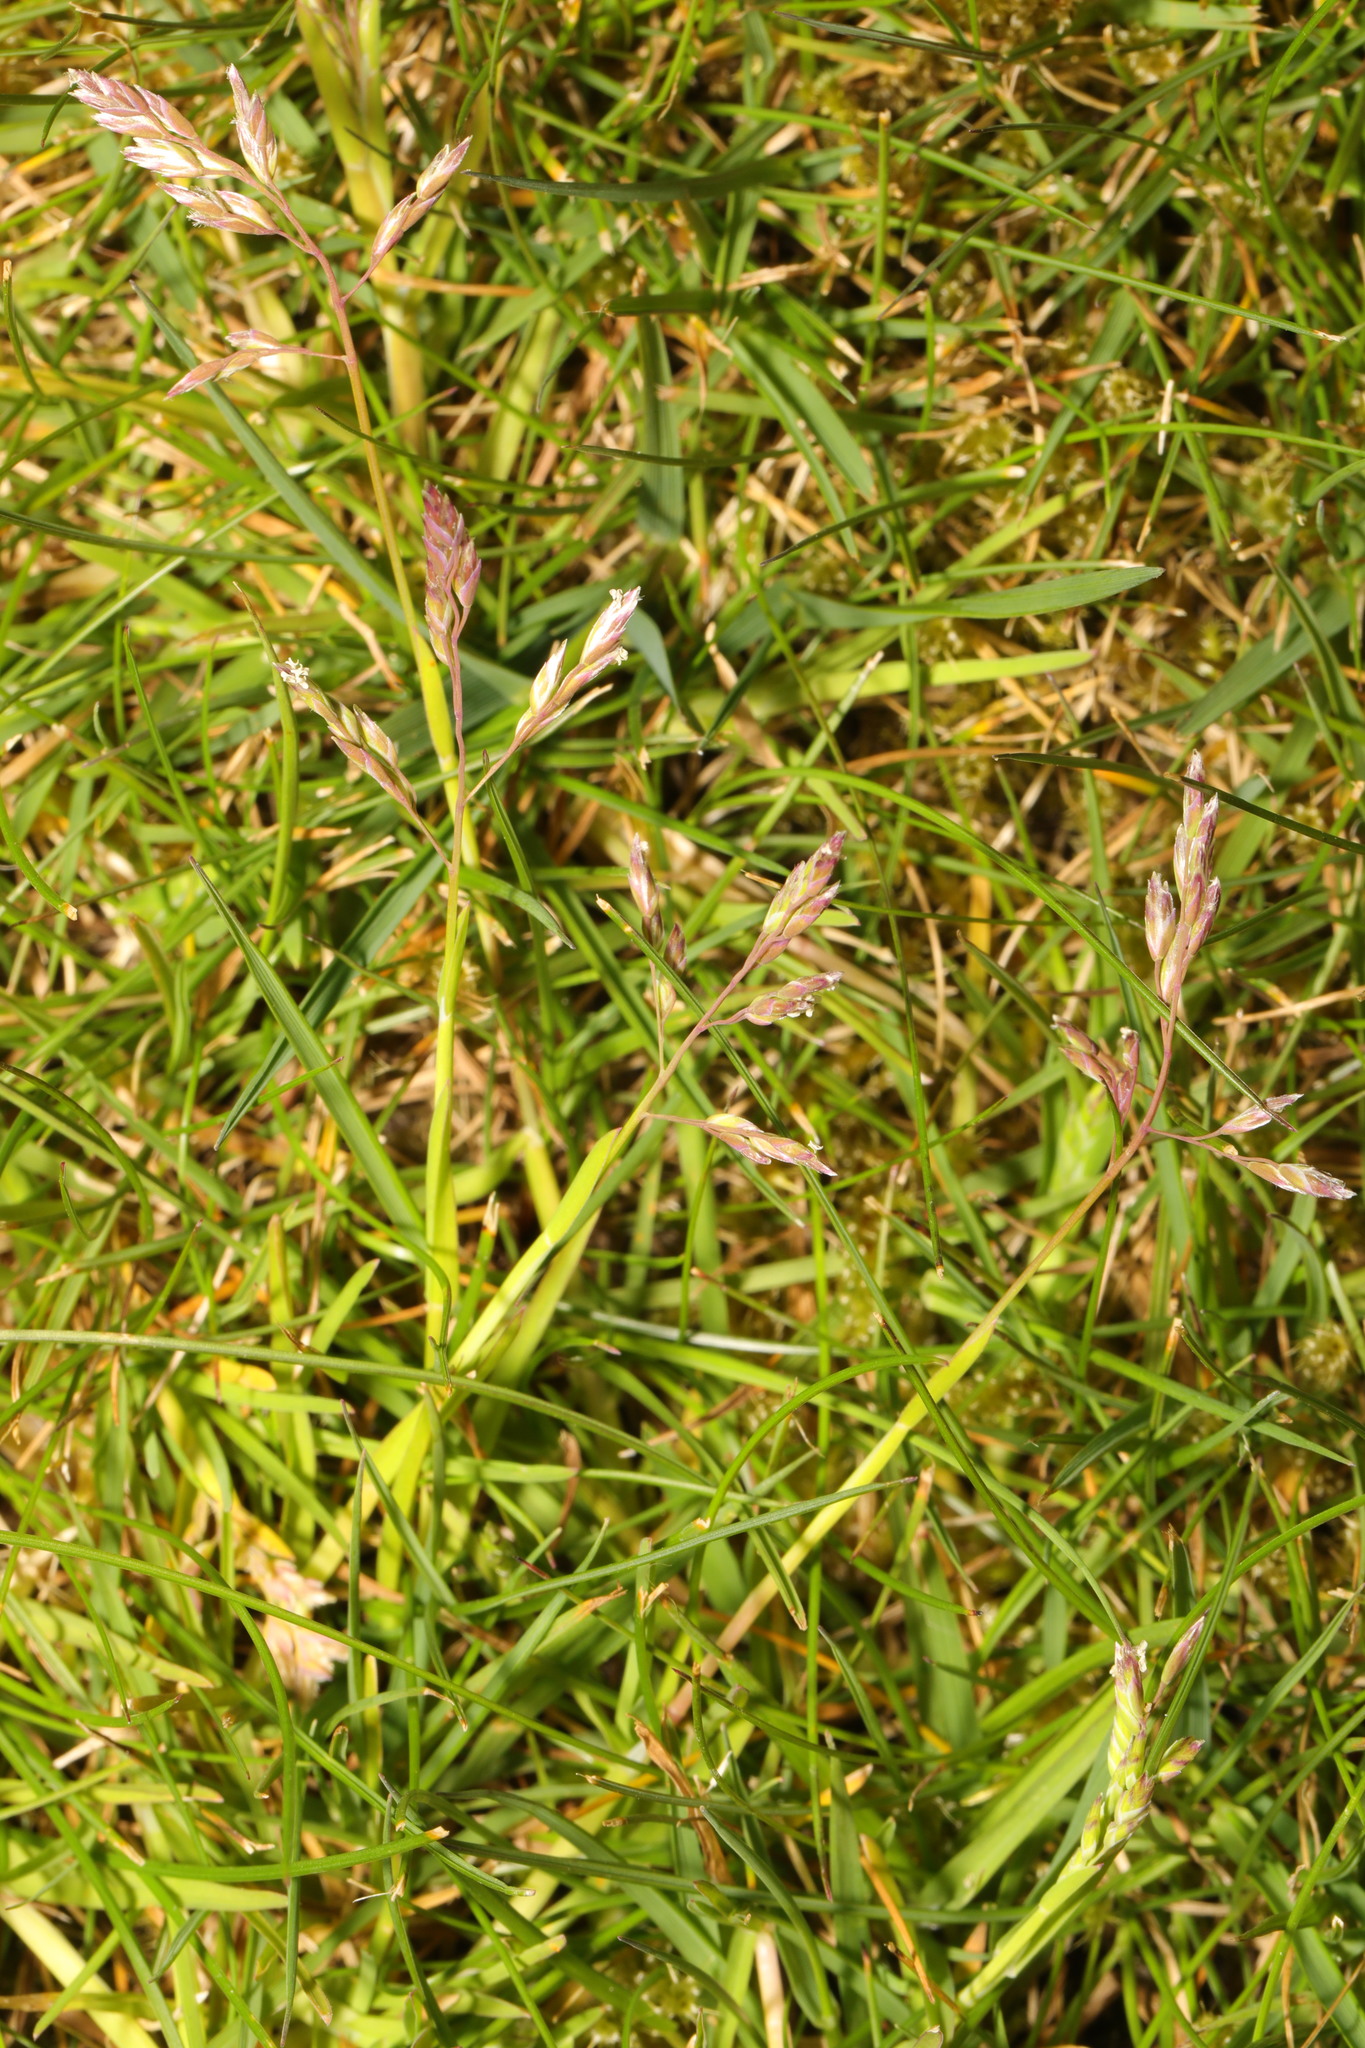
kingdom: Plantae
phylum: Tracheophyta
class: Liliopsida
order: Poales
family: Poaceae
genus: Poa
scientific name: Poa annua
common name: Annual bluegrass
